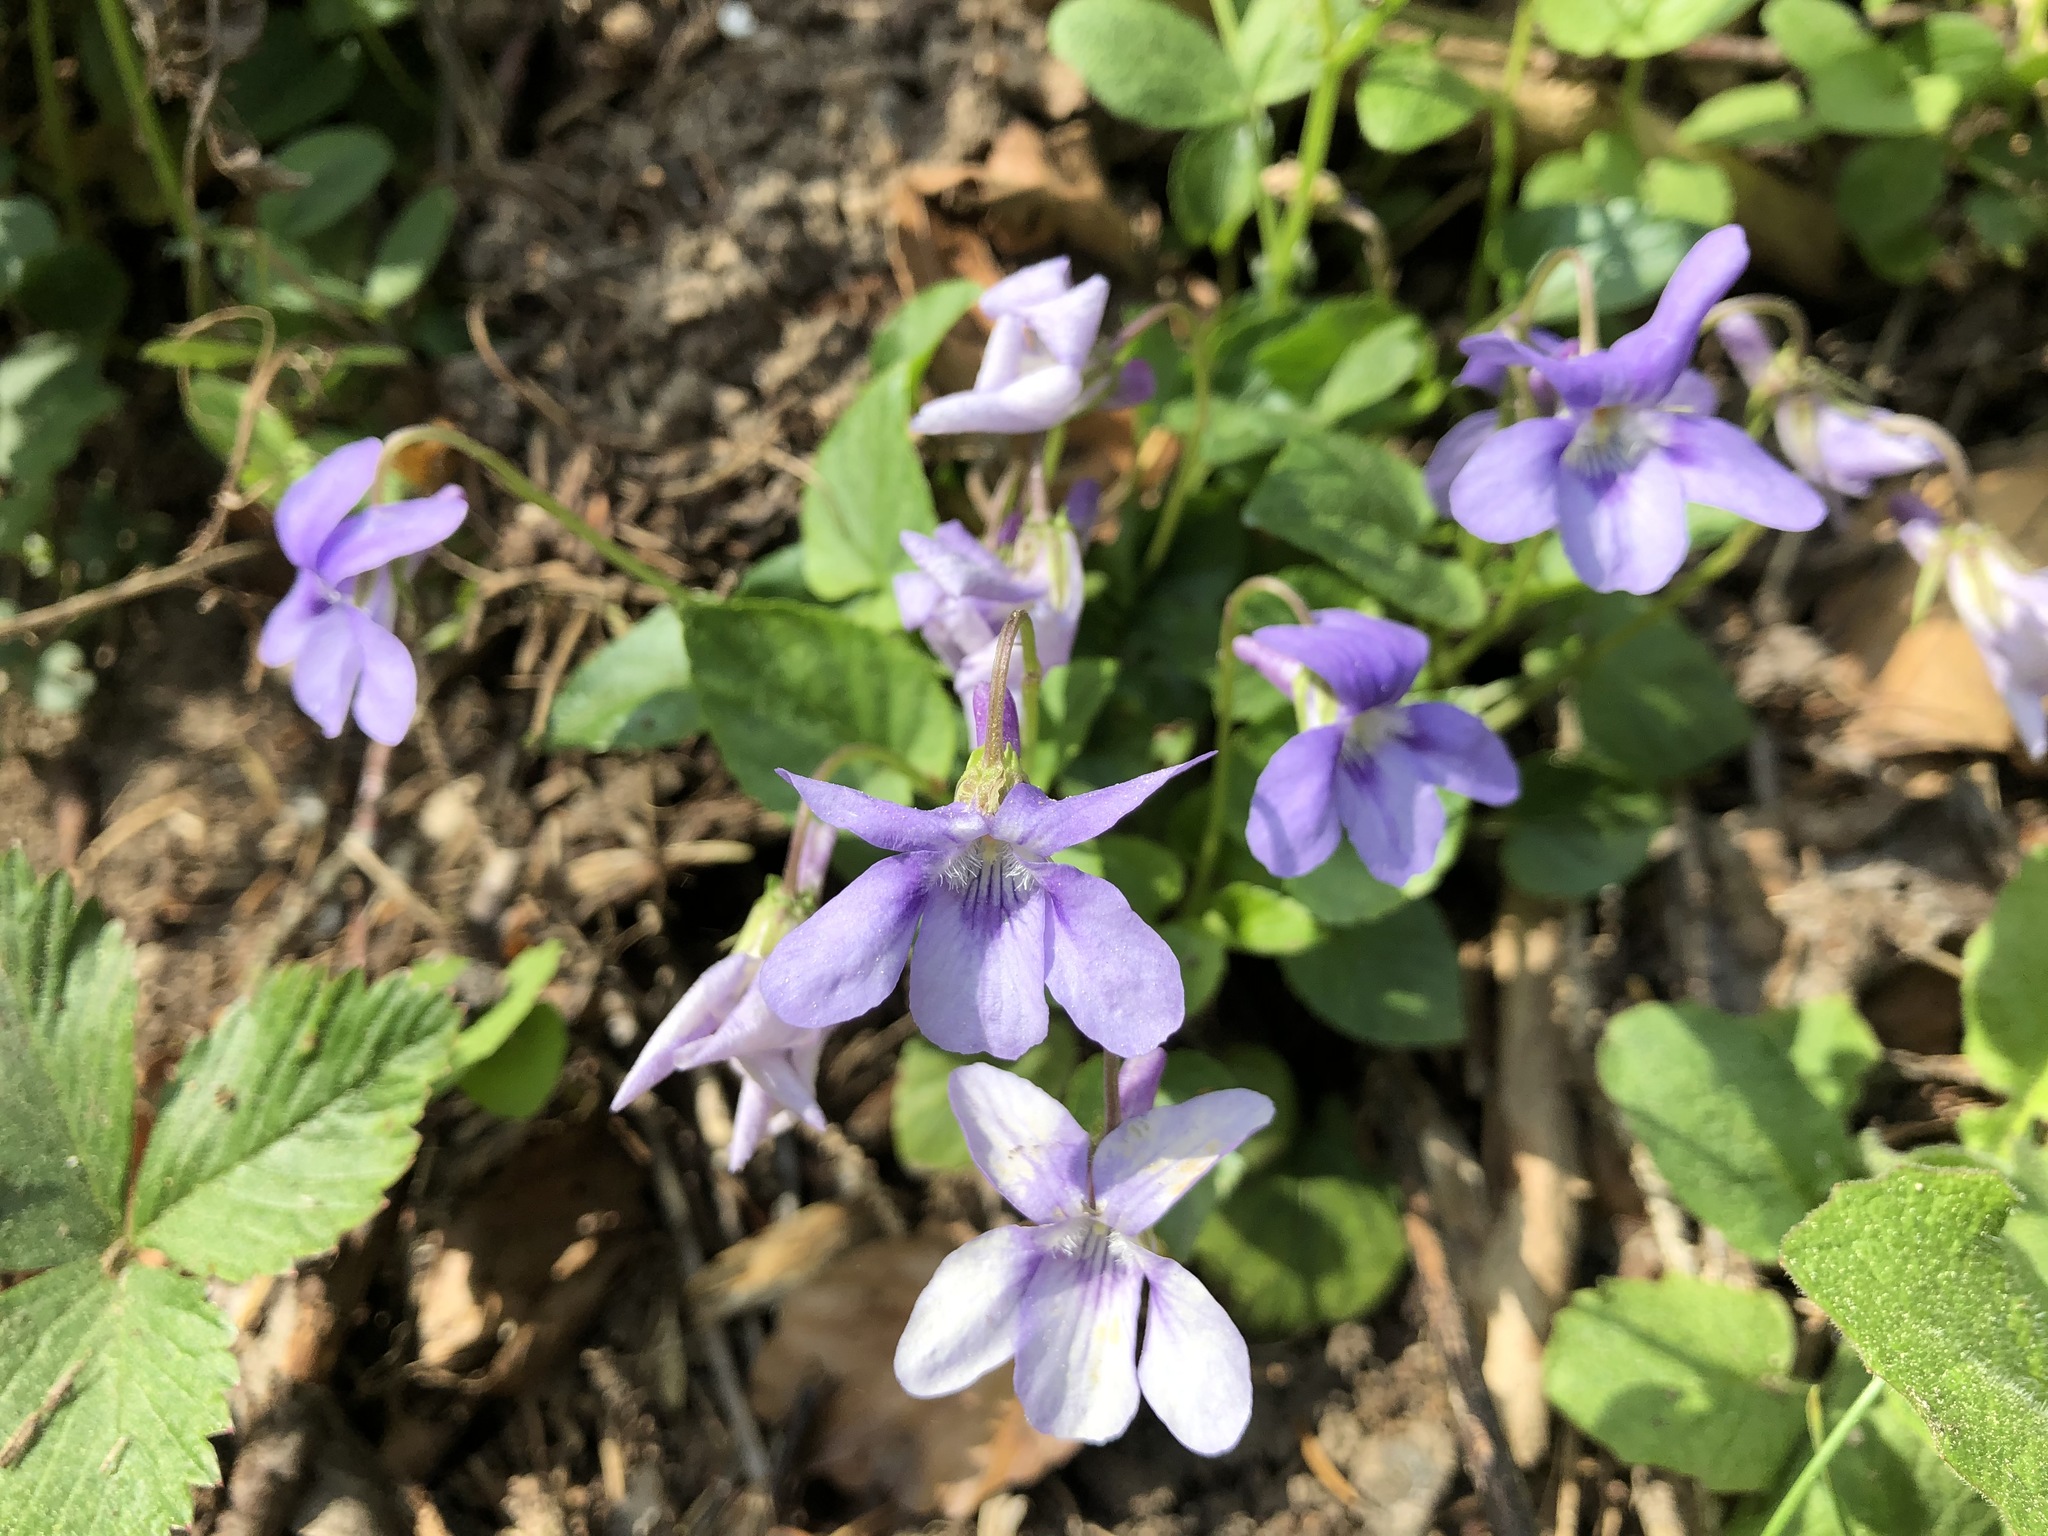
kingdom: Plantae
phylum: Tracheophyta
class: Magnoliopsida
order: Malpighiales
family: Violaceae
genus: Viola
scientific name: Viola reichenbachiana
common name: Early dog-violet
